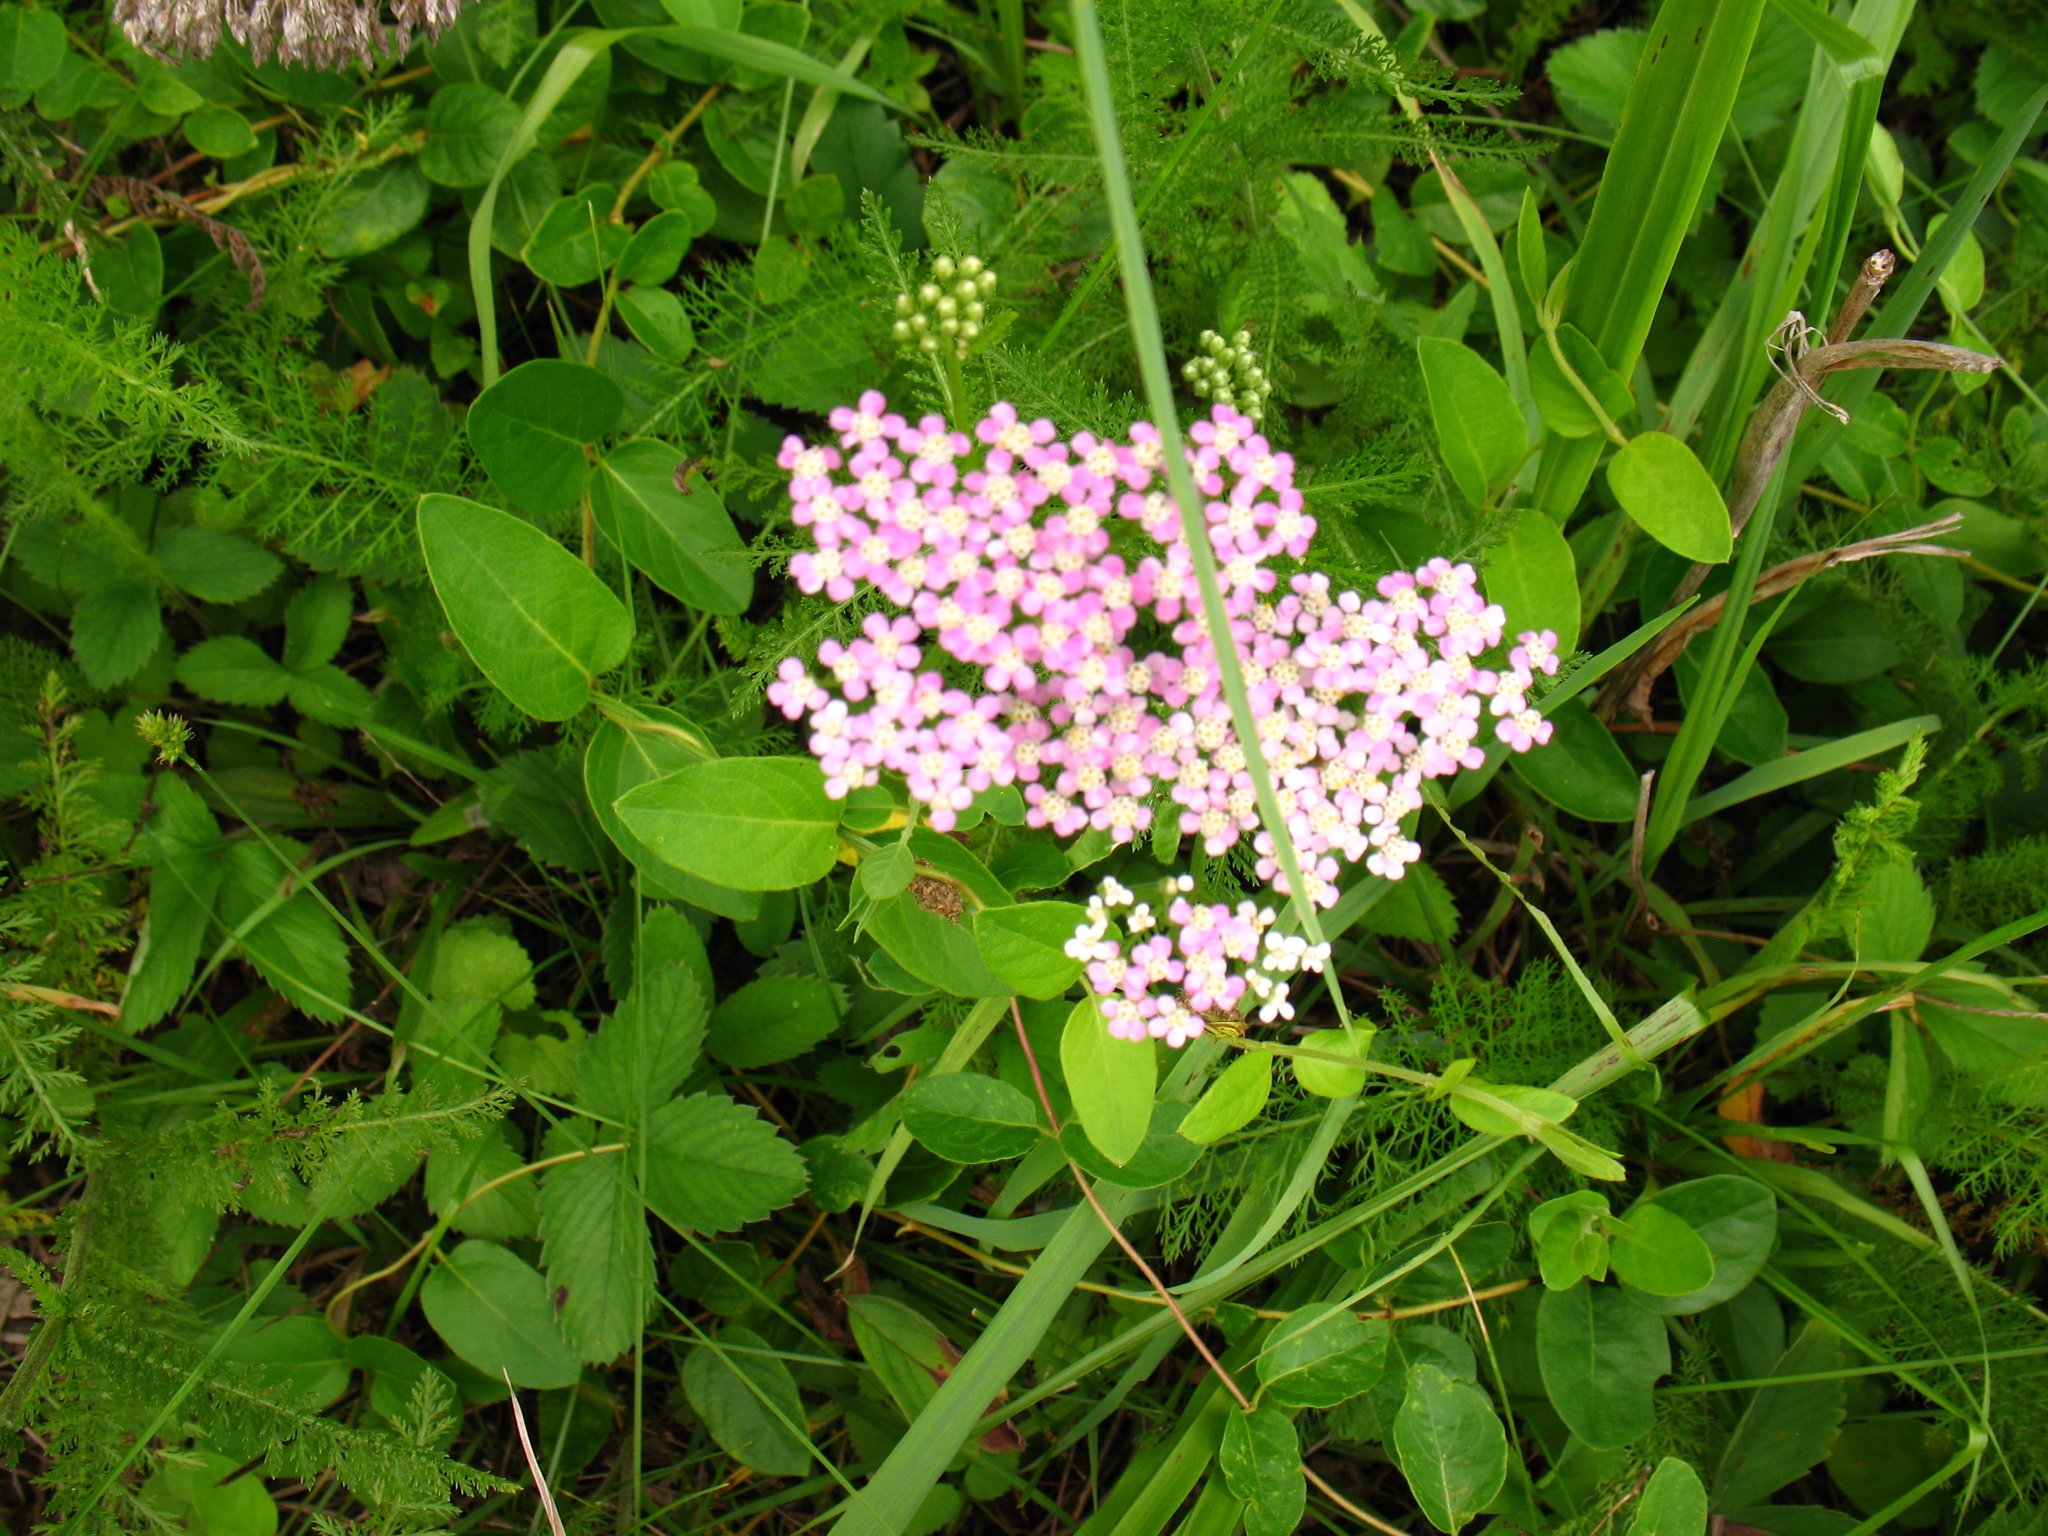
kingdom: Plantae
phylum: Tracheophyta
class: Magnoliopsida
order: Asterales
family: Asteraceae
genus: Achillea
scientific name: Achillea millefolium
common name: Yarrow
